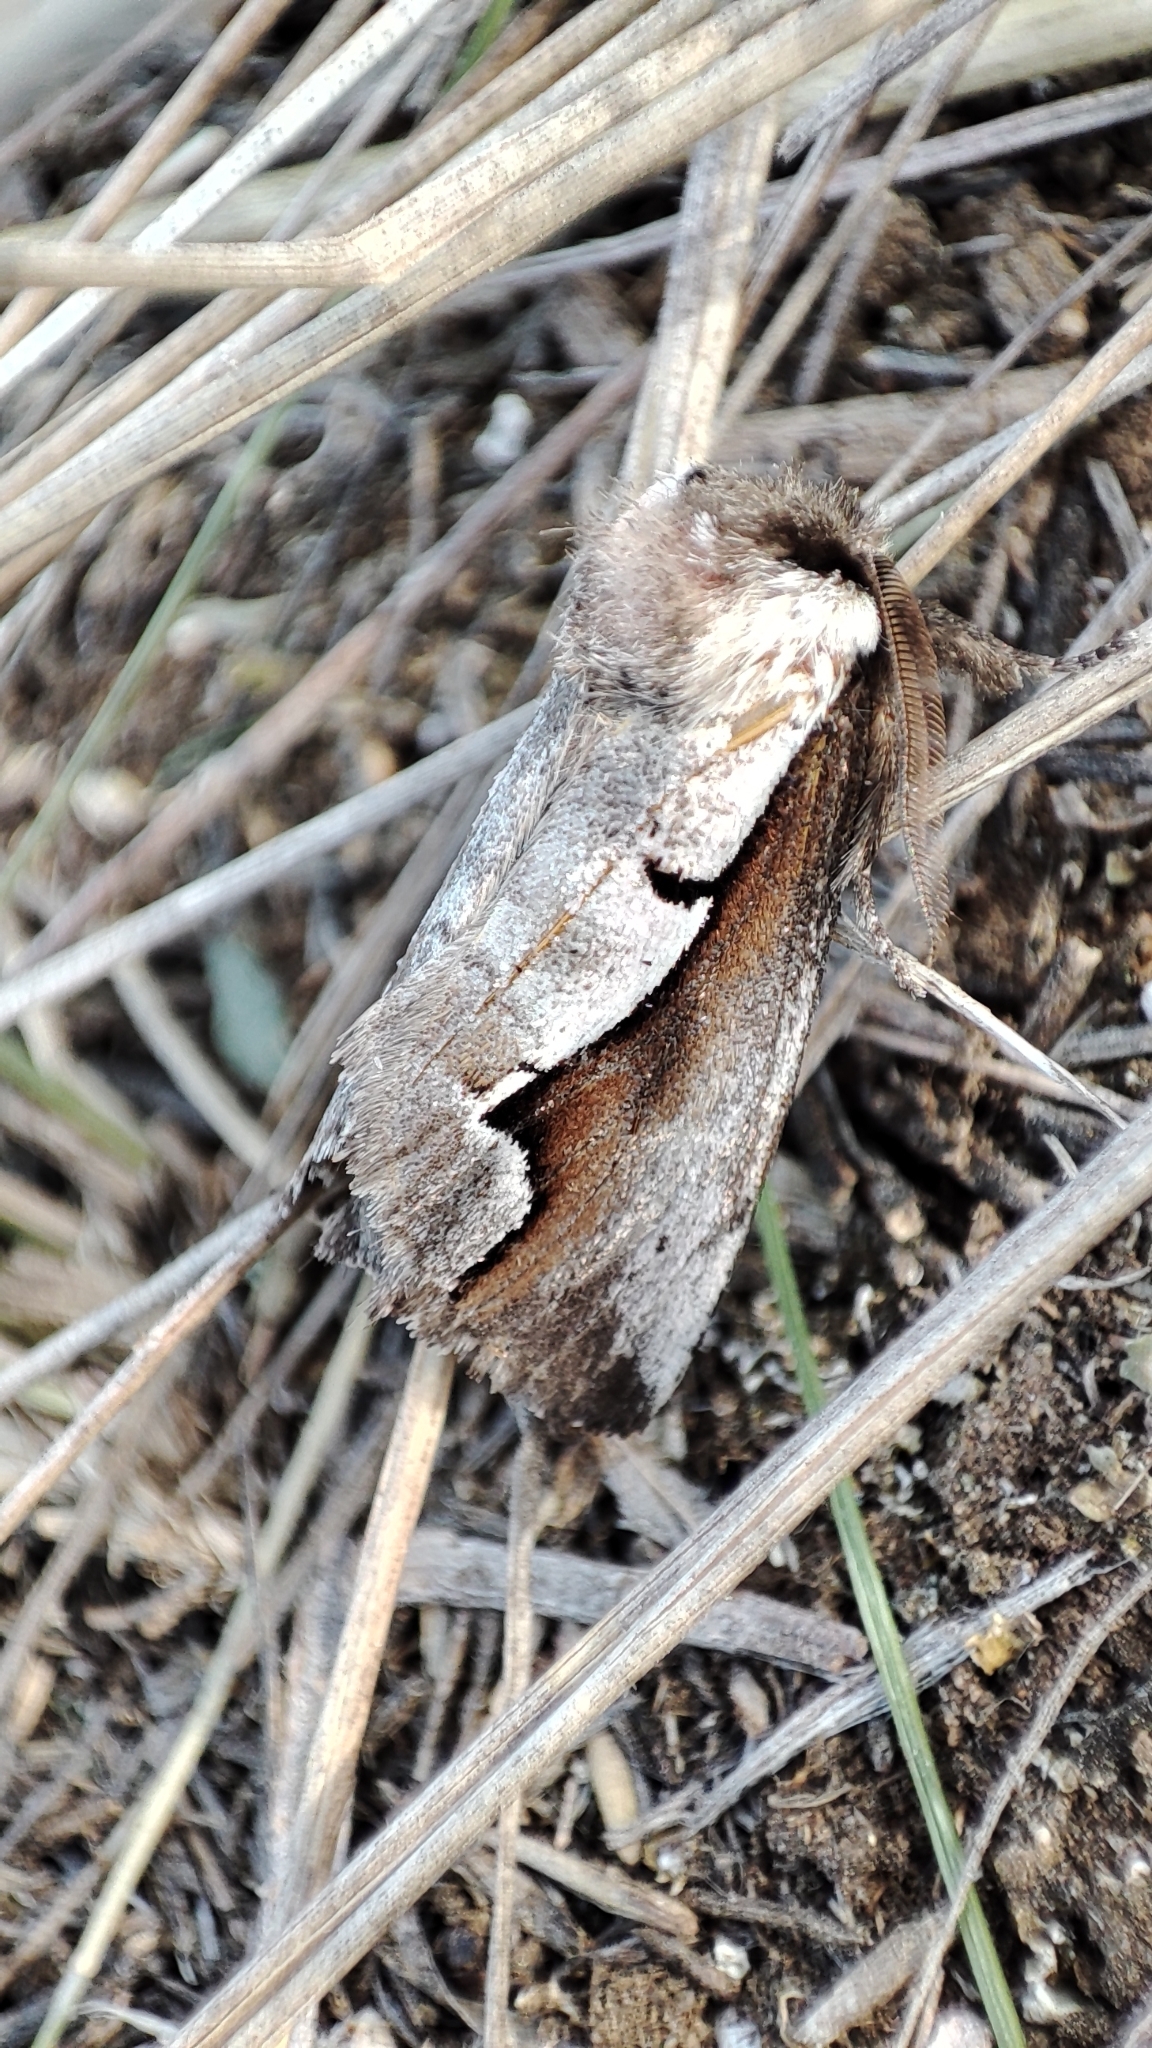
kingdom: Animalia
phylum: Arthropoda
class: Insecta
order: Lepidoptera
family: Notodontidae
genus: Nerice
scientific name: Nerice davidi
